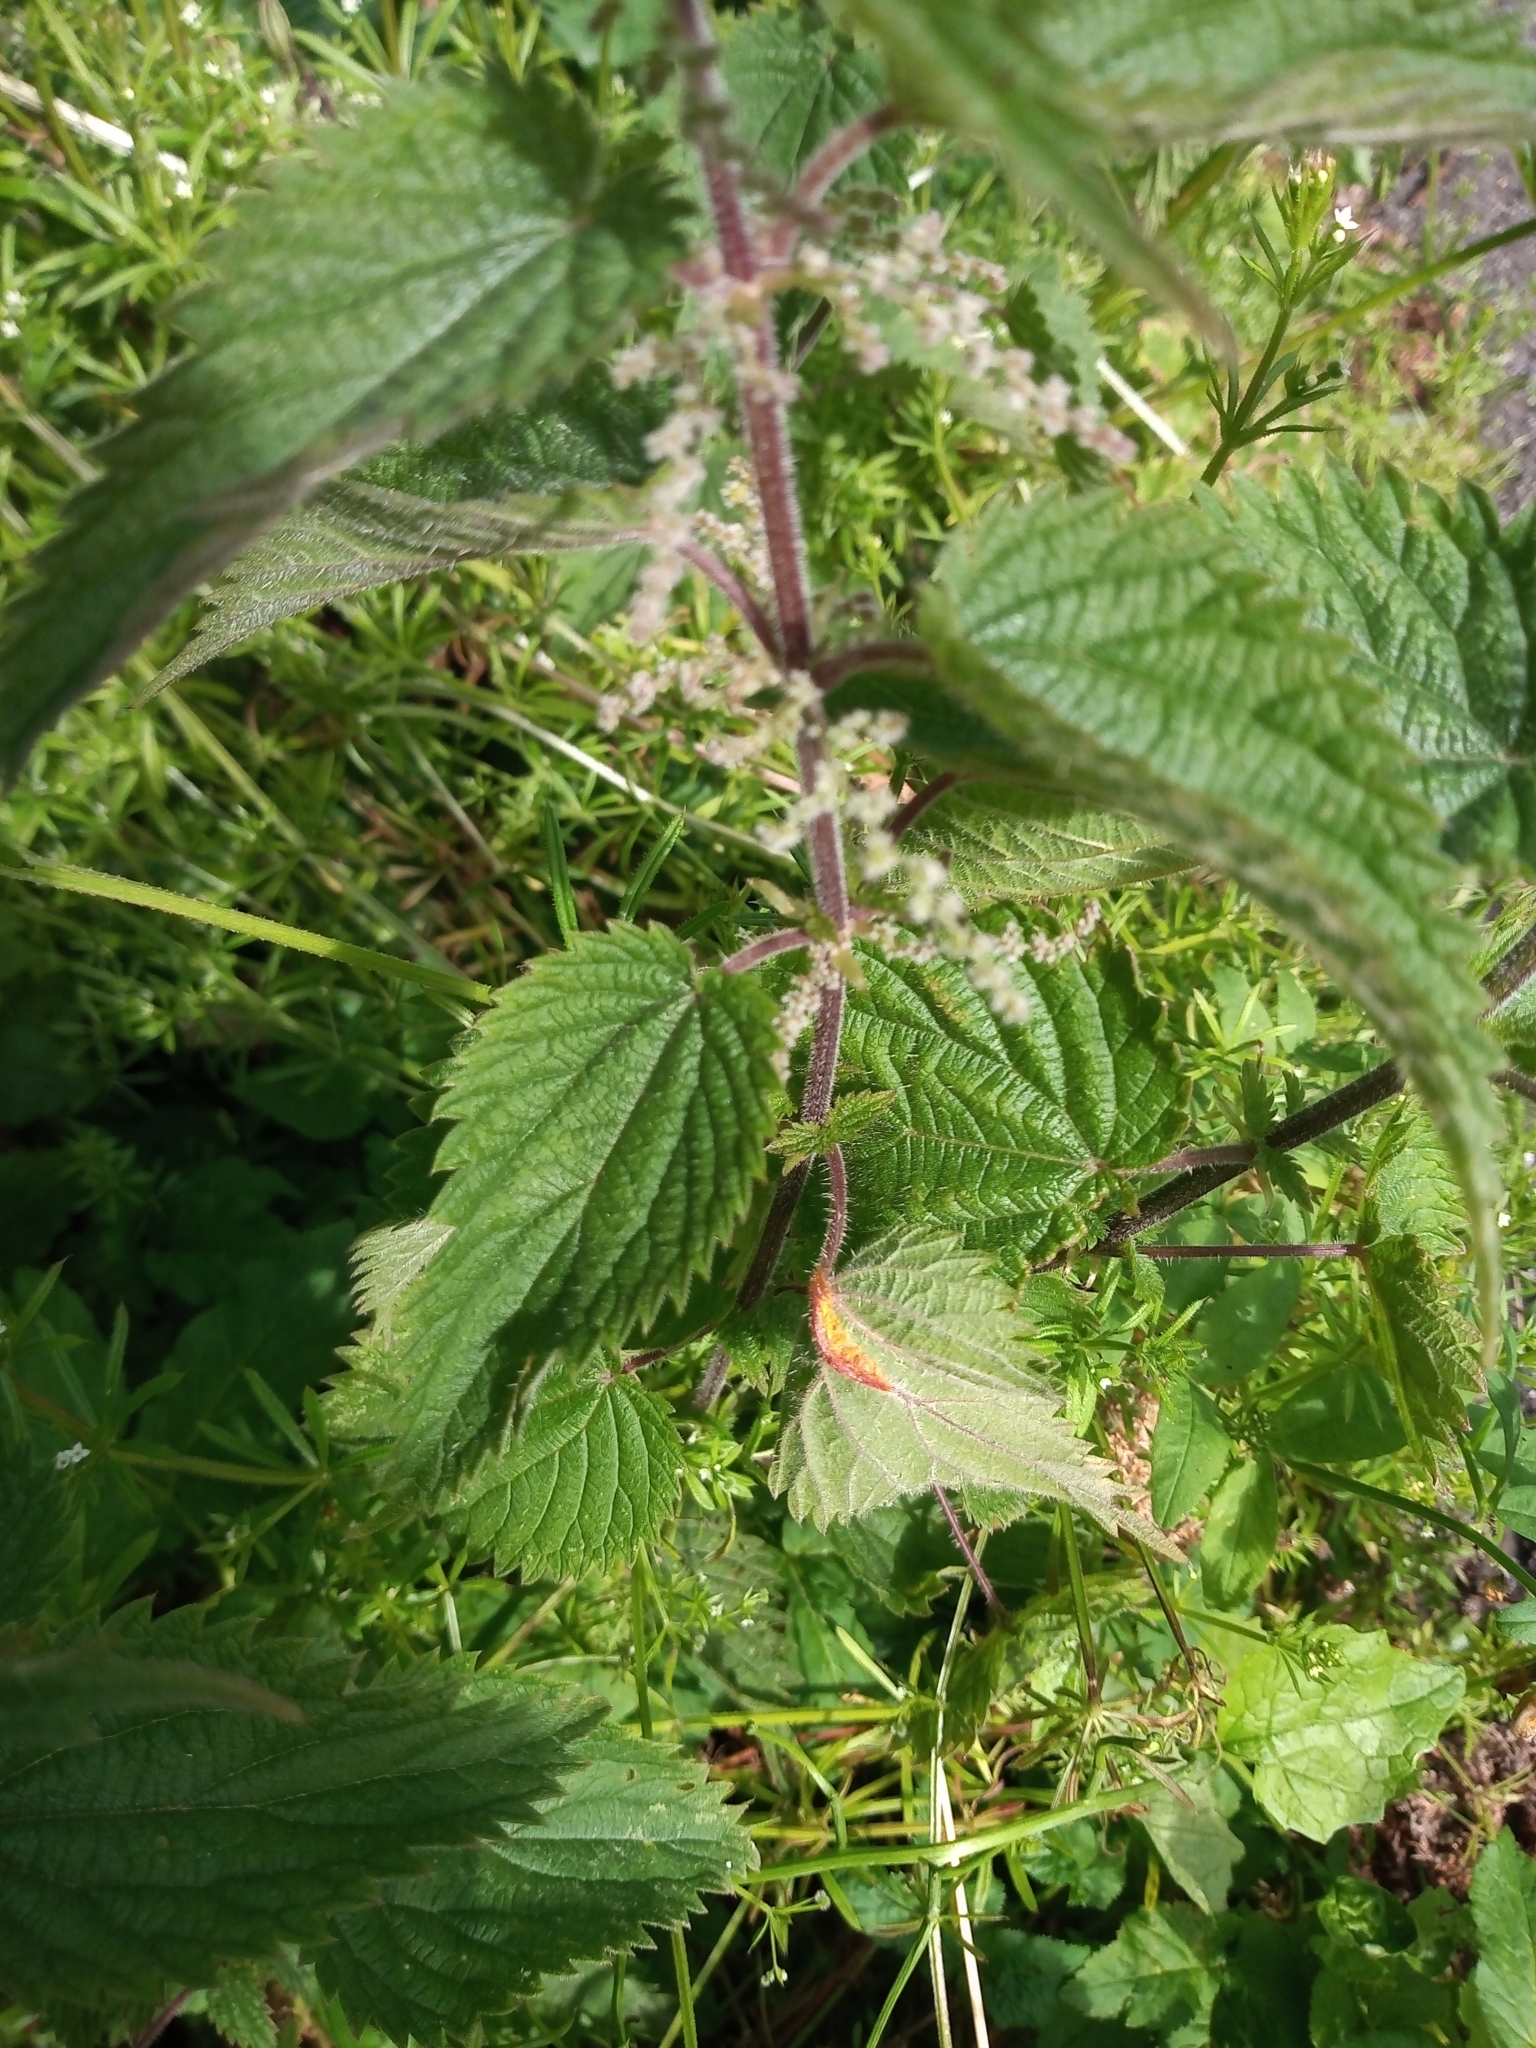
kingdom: Fungi
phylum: Basidiomycota
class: Pucciniomycetes
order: Pucciniales
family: Pucciniaceae
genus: Puccinia
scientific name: Puccinia urticata
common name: Nettle clustercup rust fungus
